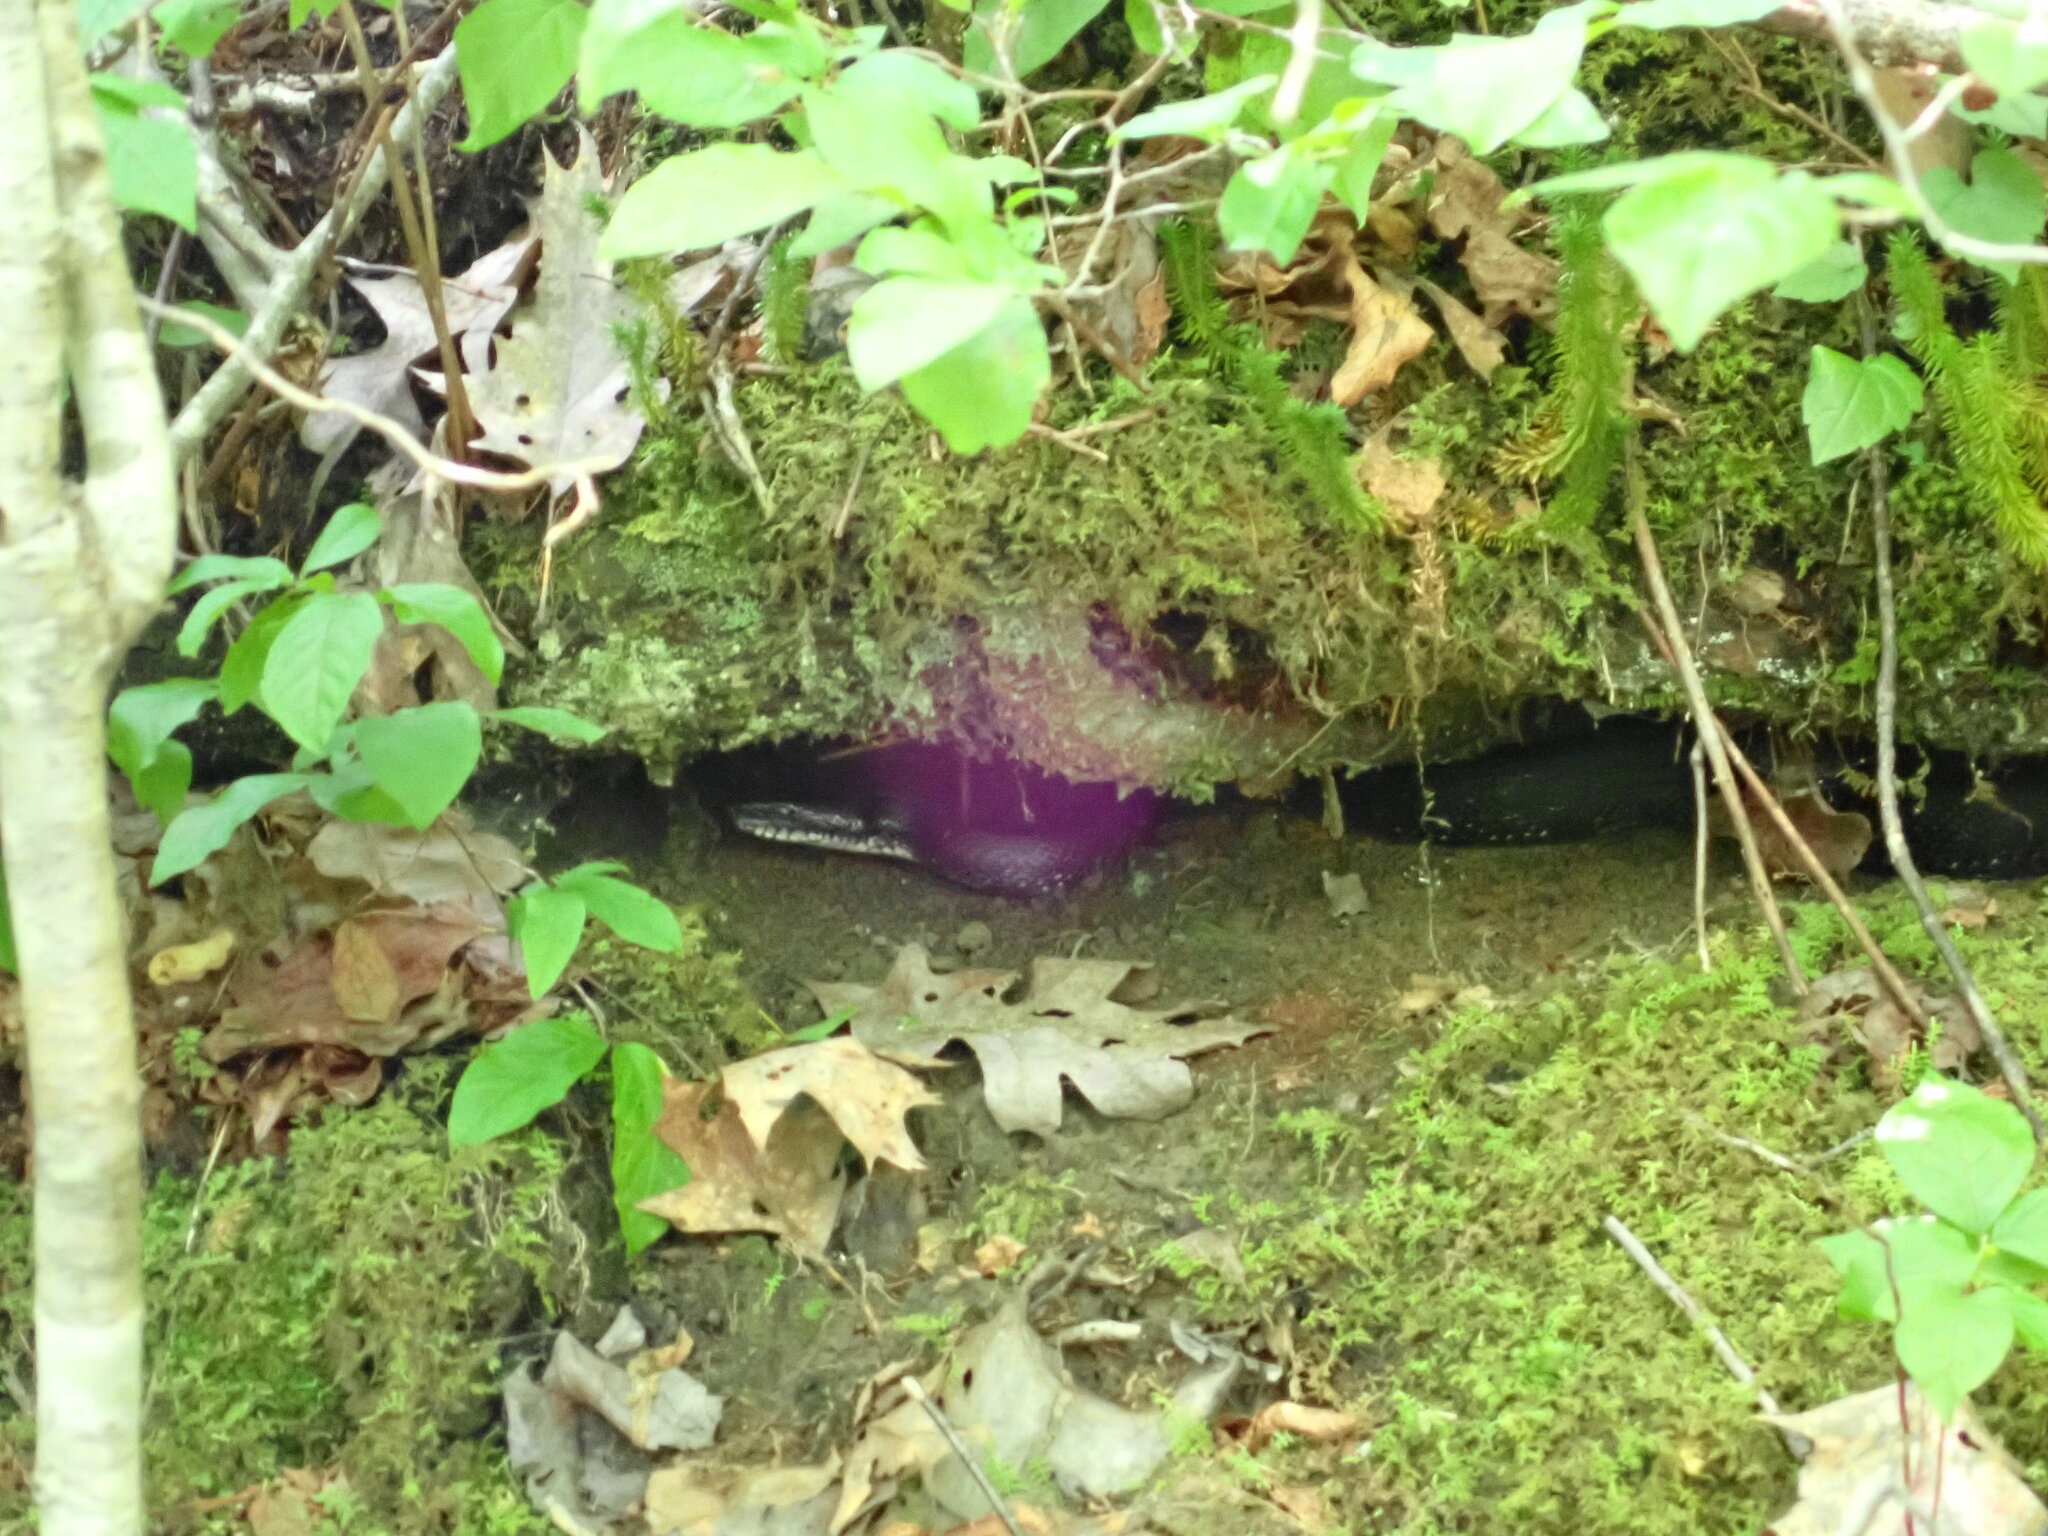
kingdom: Animalia
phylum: Chordata
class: Squamata
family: Colubridae
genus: Pantherophis
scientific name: Pantherophis
